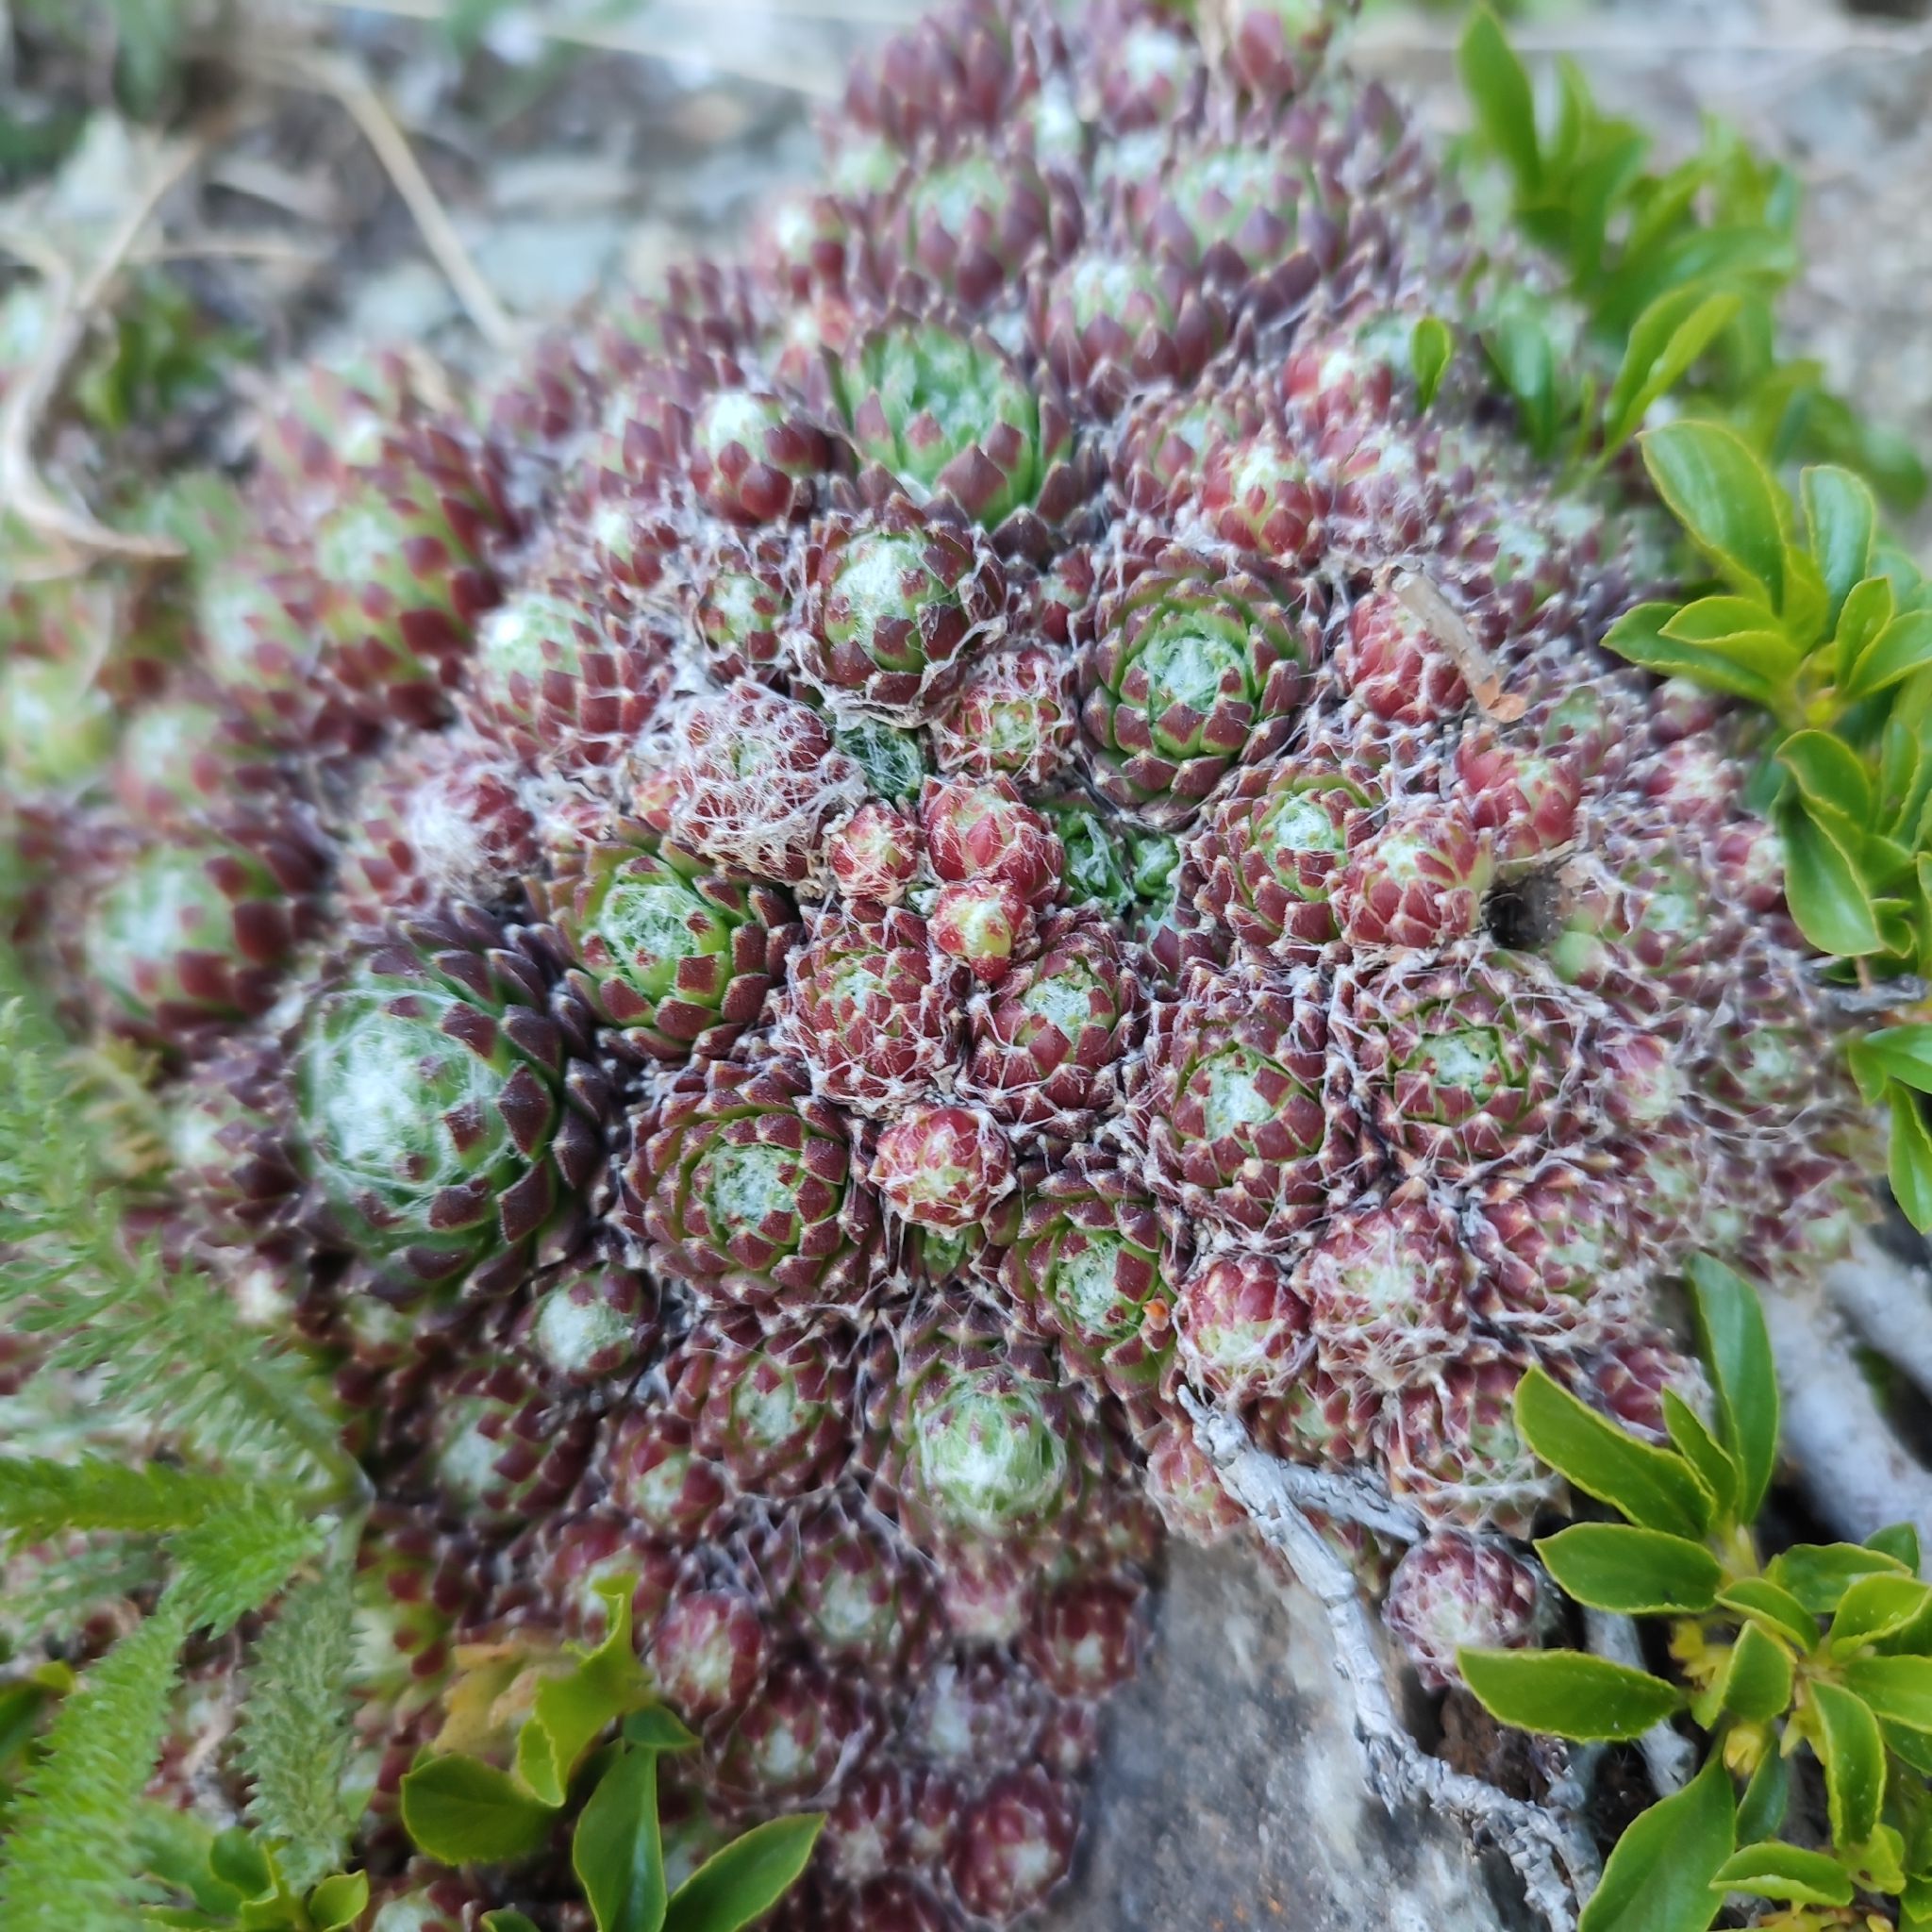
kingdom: Plantae
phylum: Tracheophyta
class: Magnoliopsida
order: Saxifragales
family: Crassulaceae
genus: Sempervivum
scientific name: Sempervivum arachnoideum
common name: Cobweb house-leek
